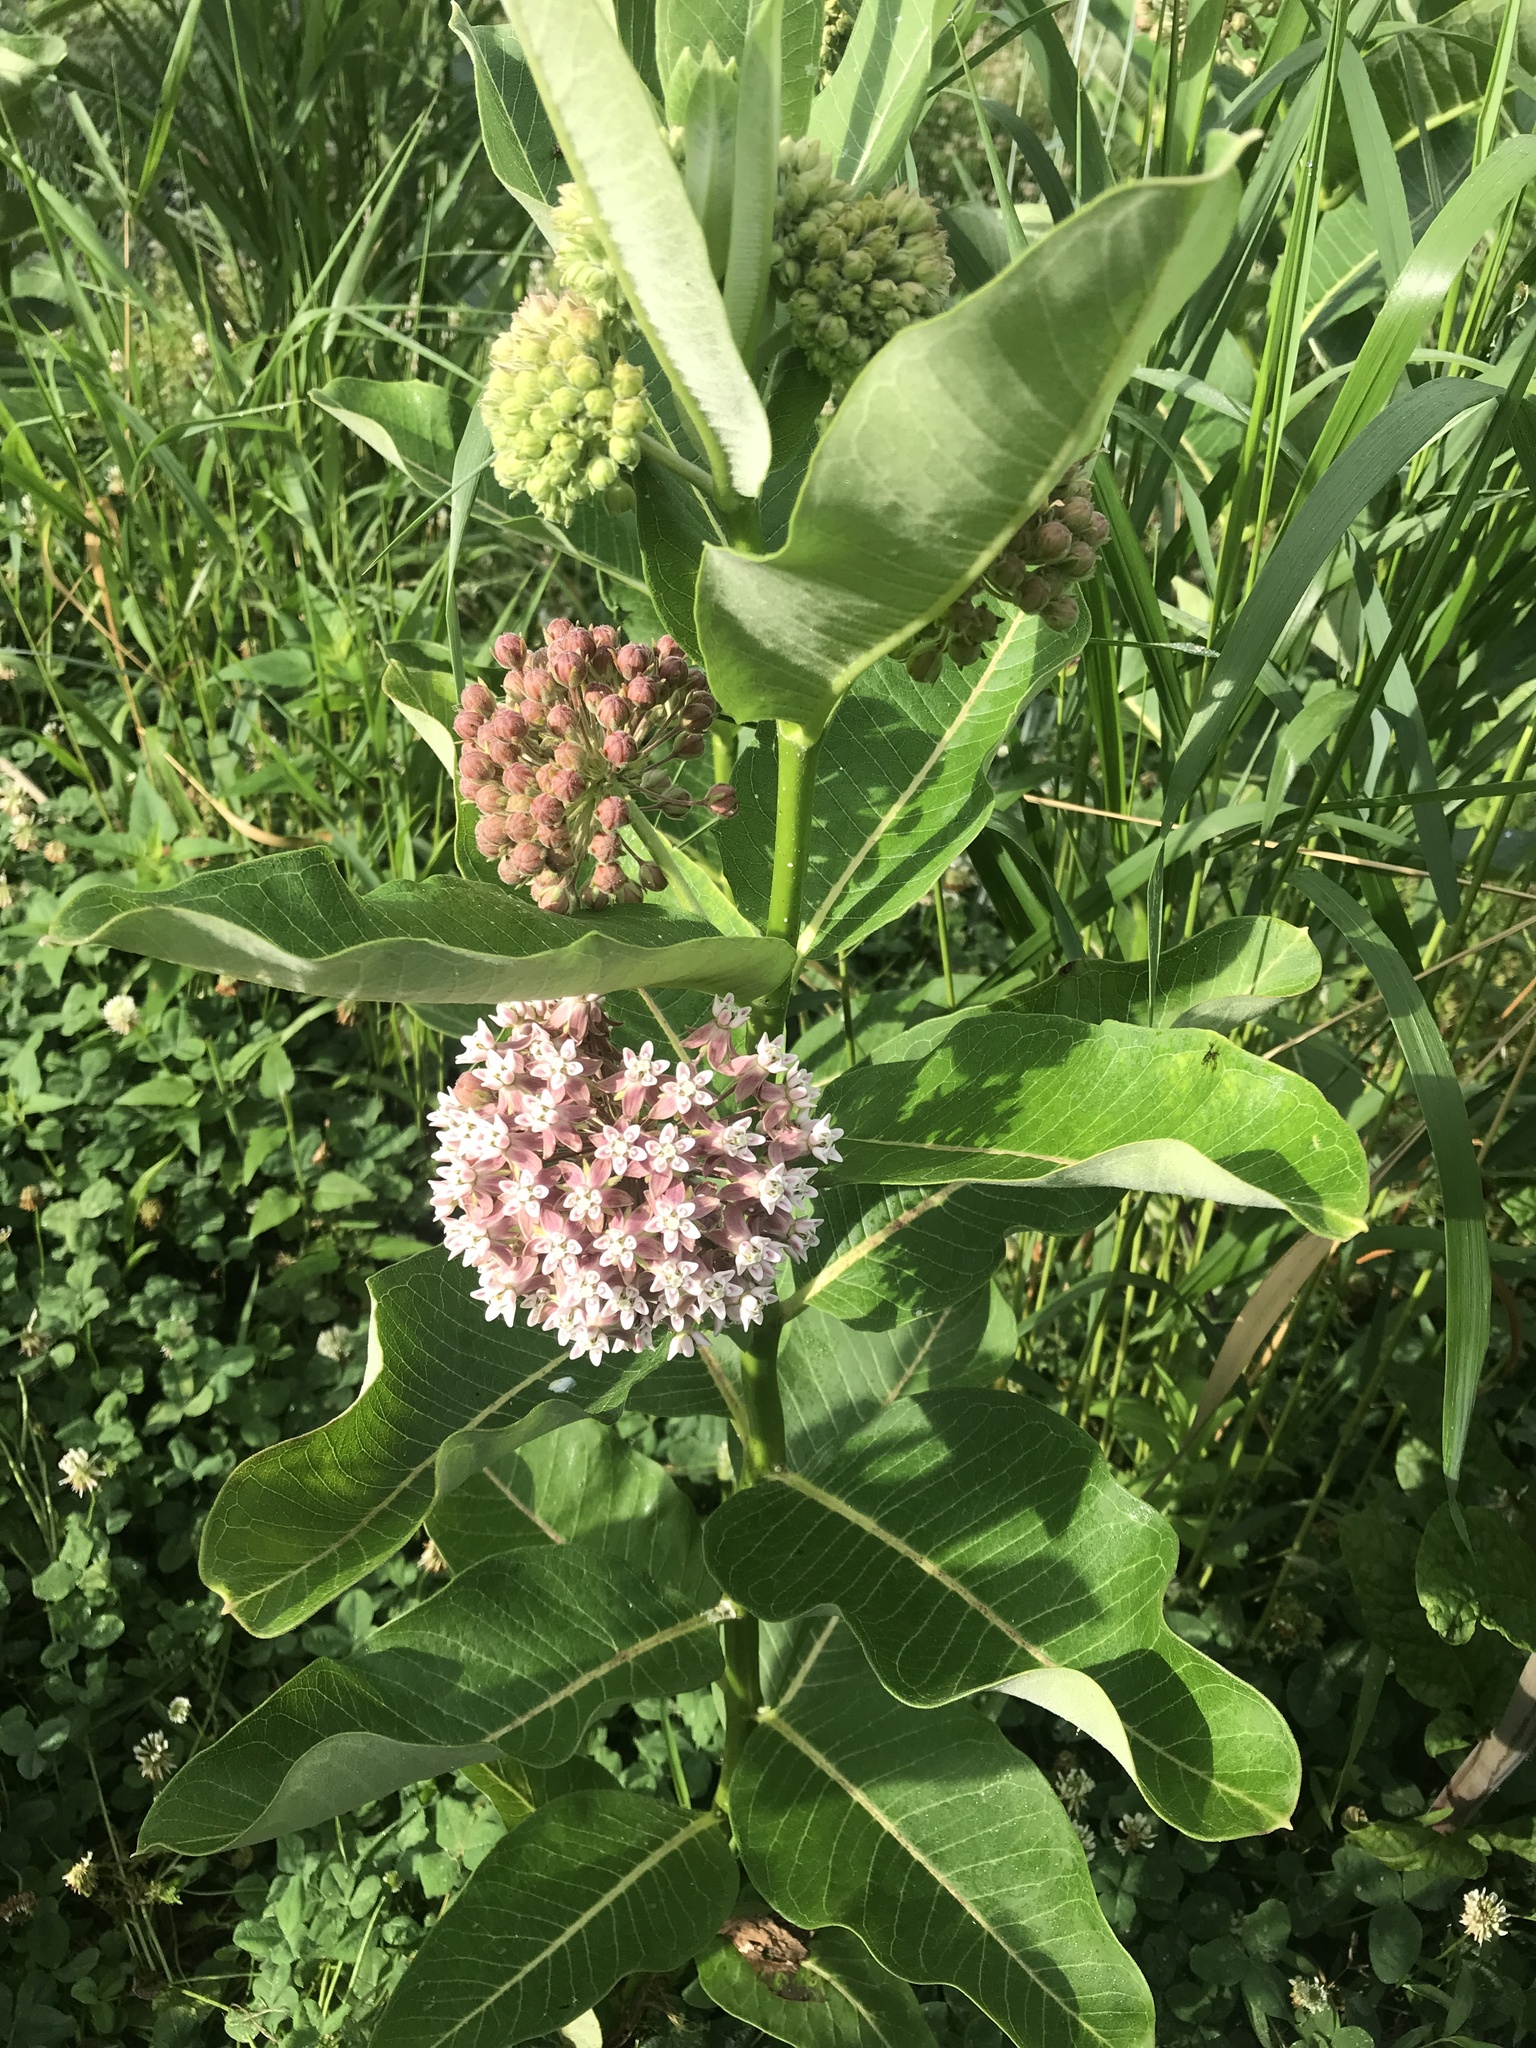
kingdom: Plantae
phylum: Tracheophyta
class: Magnoliopsida
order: Gentianales
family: Apocynaceae
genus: Asclepias
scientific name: Asclepias syriaca
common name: Common milkweed
